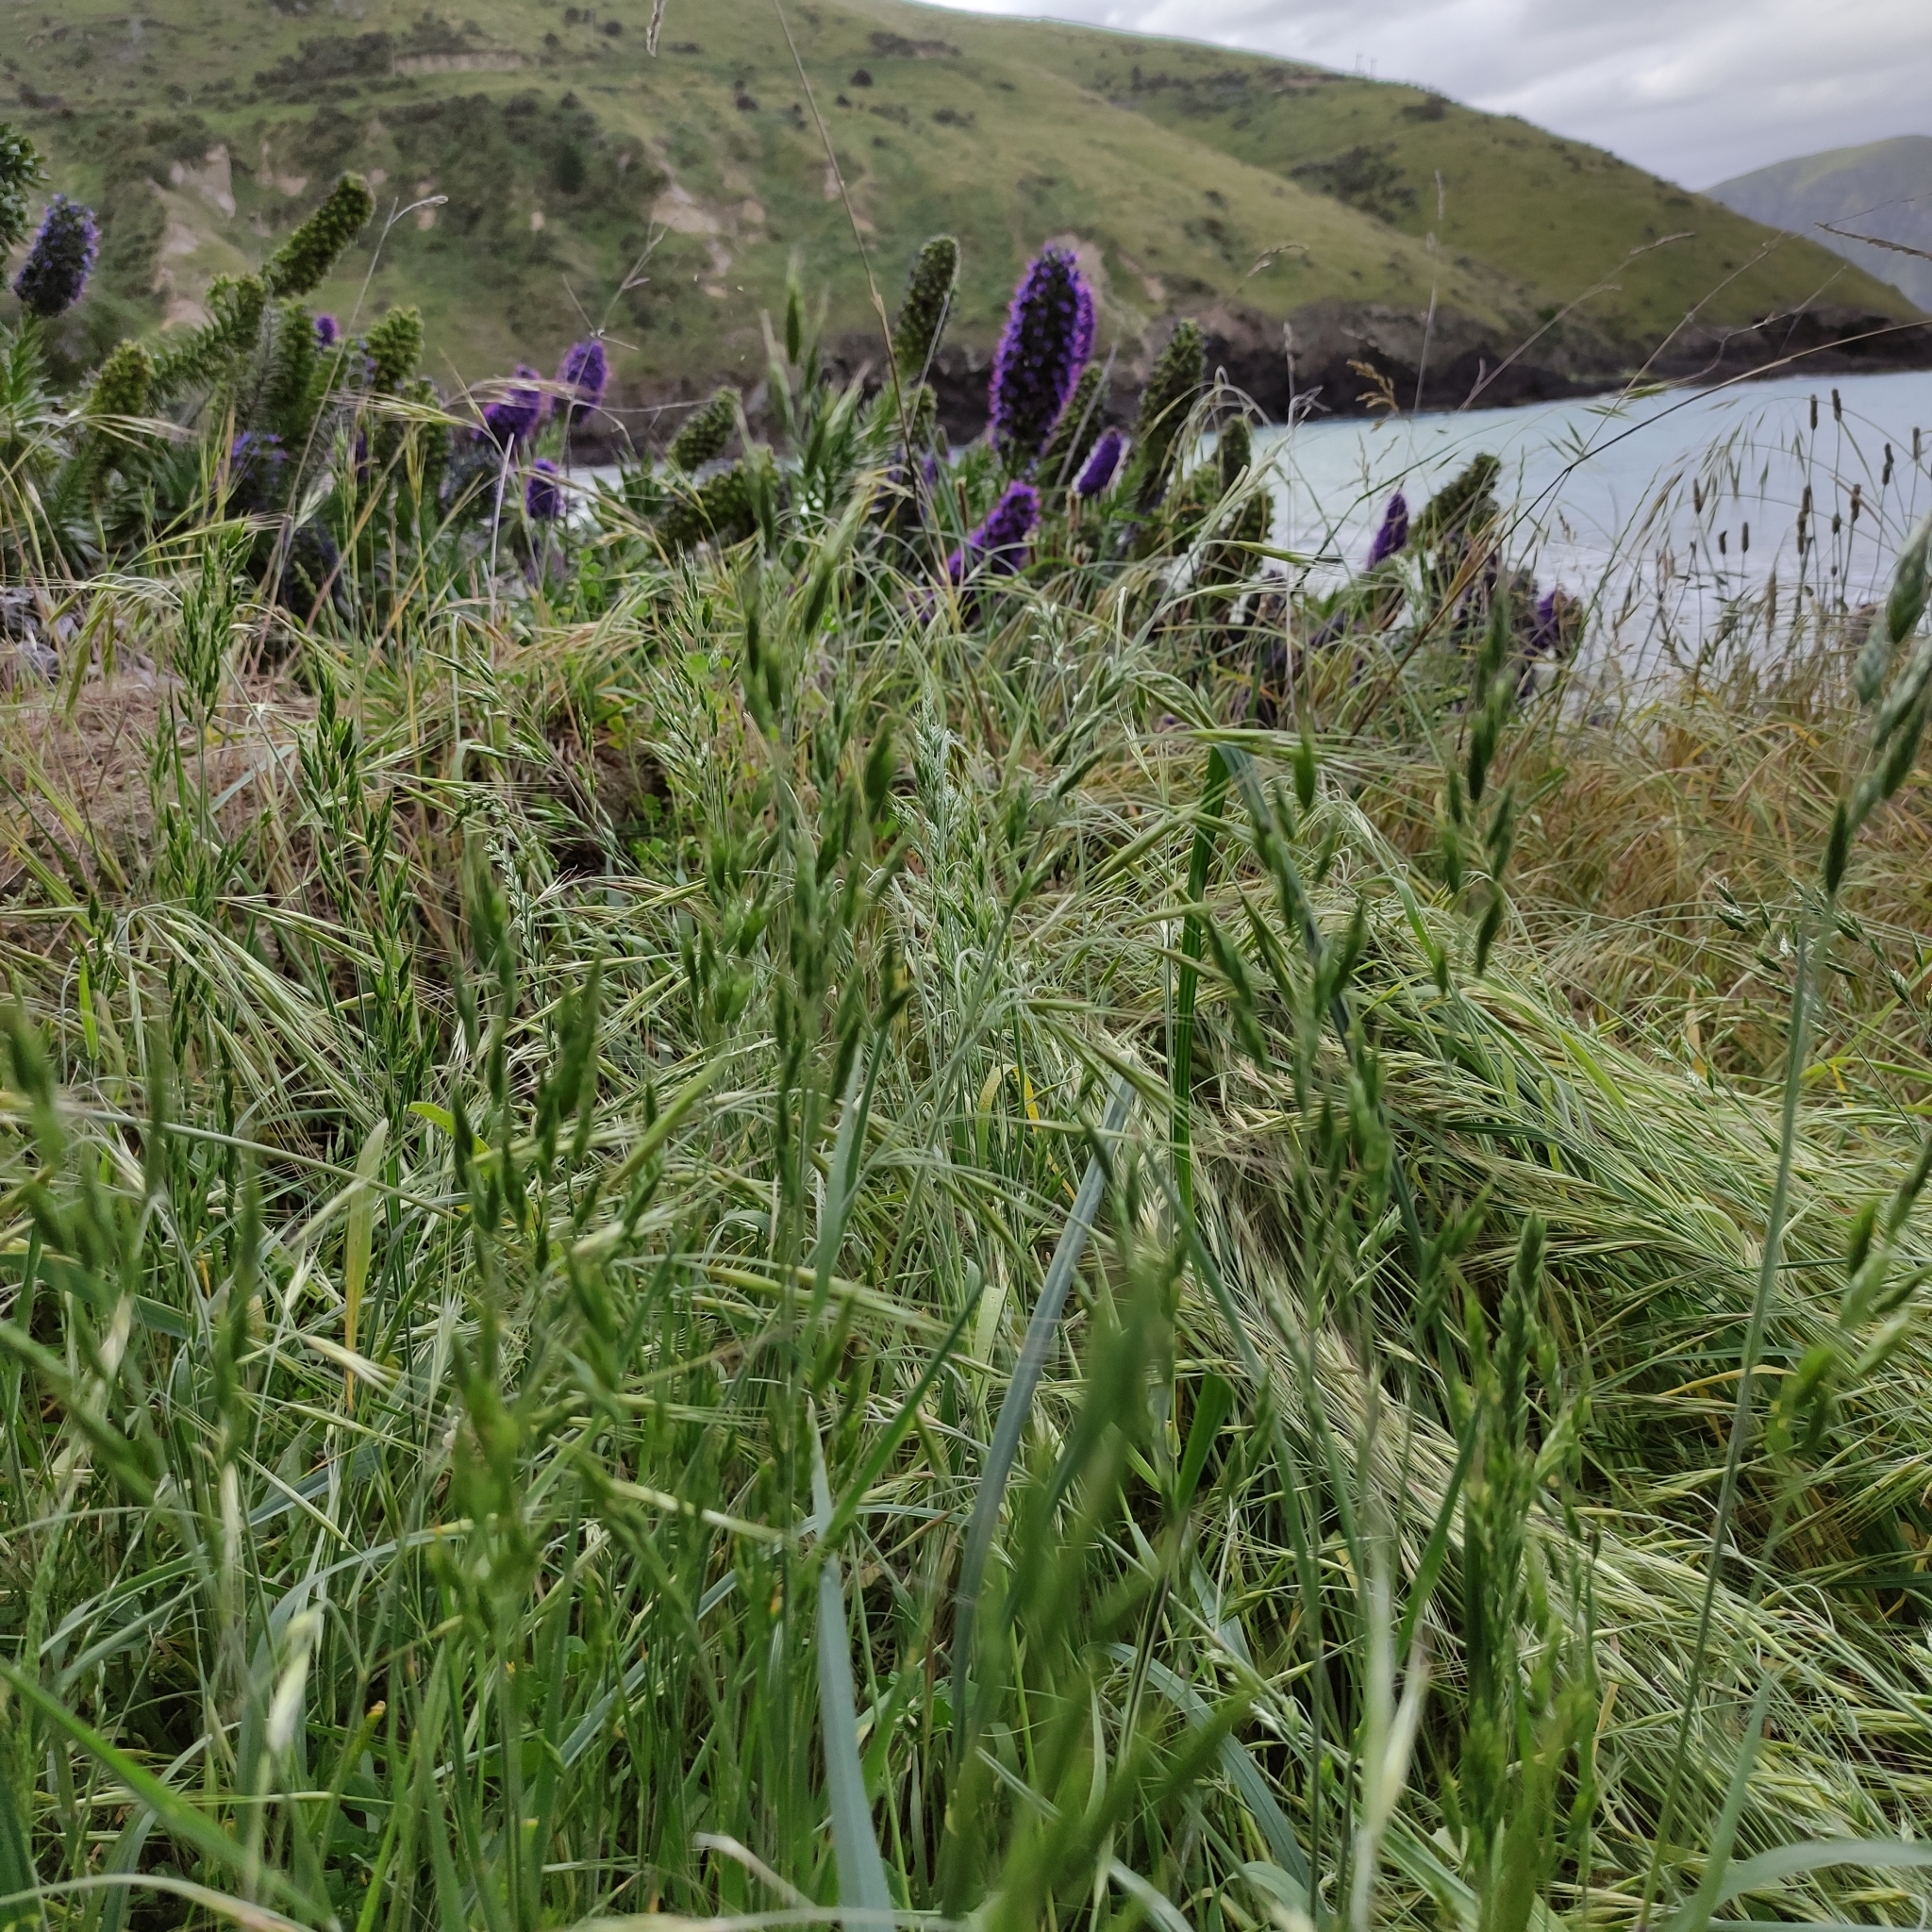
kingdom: Plantae
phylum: Tracheophyta
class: Liliopsida
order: Poales
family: Poaceae
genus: Bromus
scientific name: Bromus hordeaceus
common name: Soft brome
